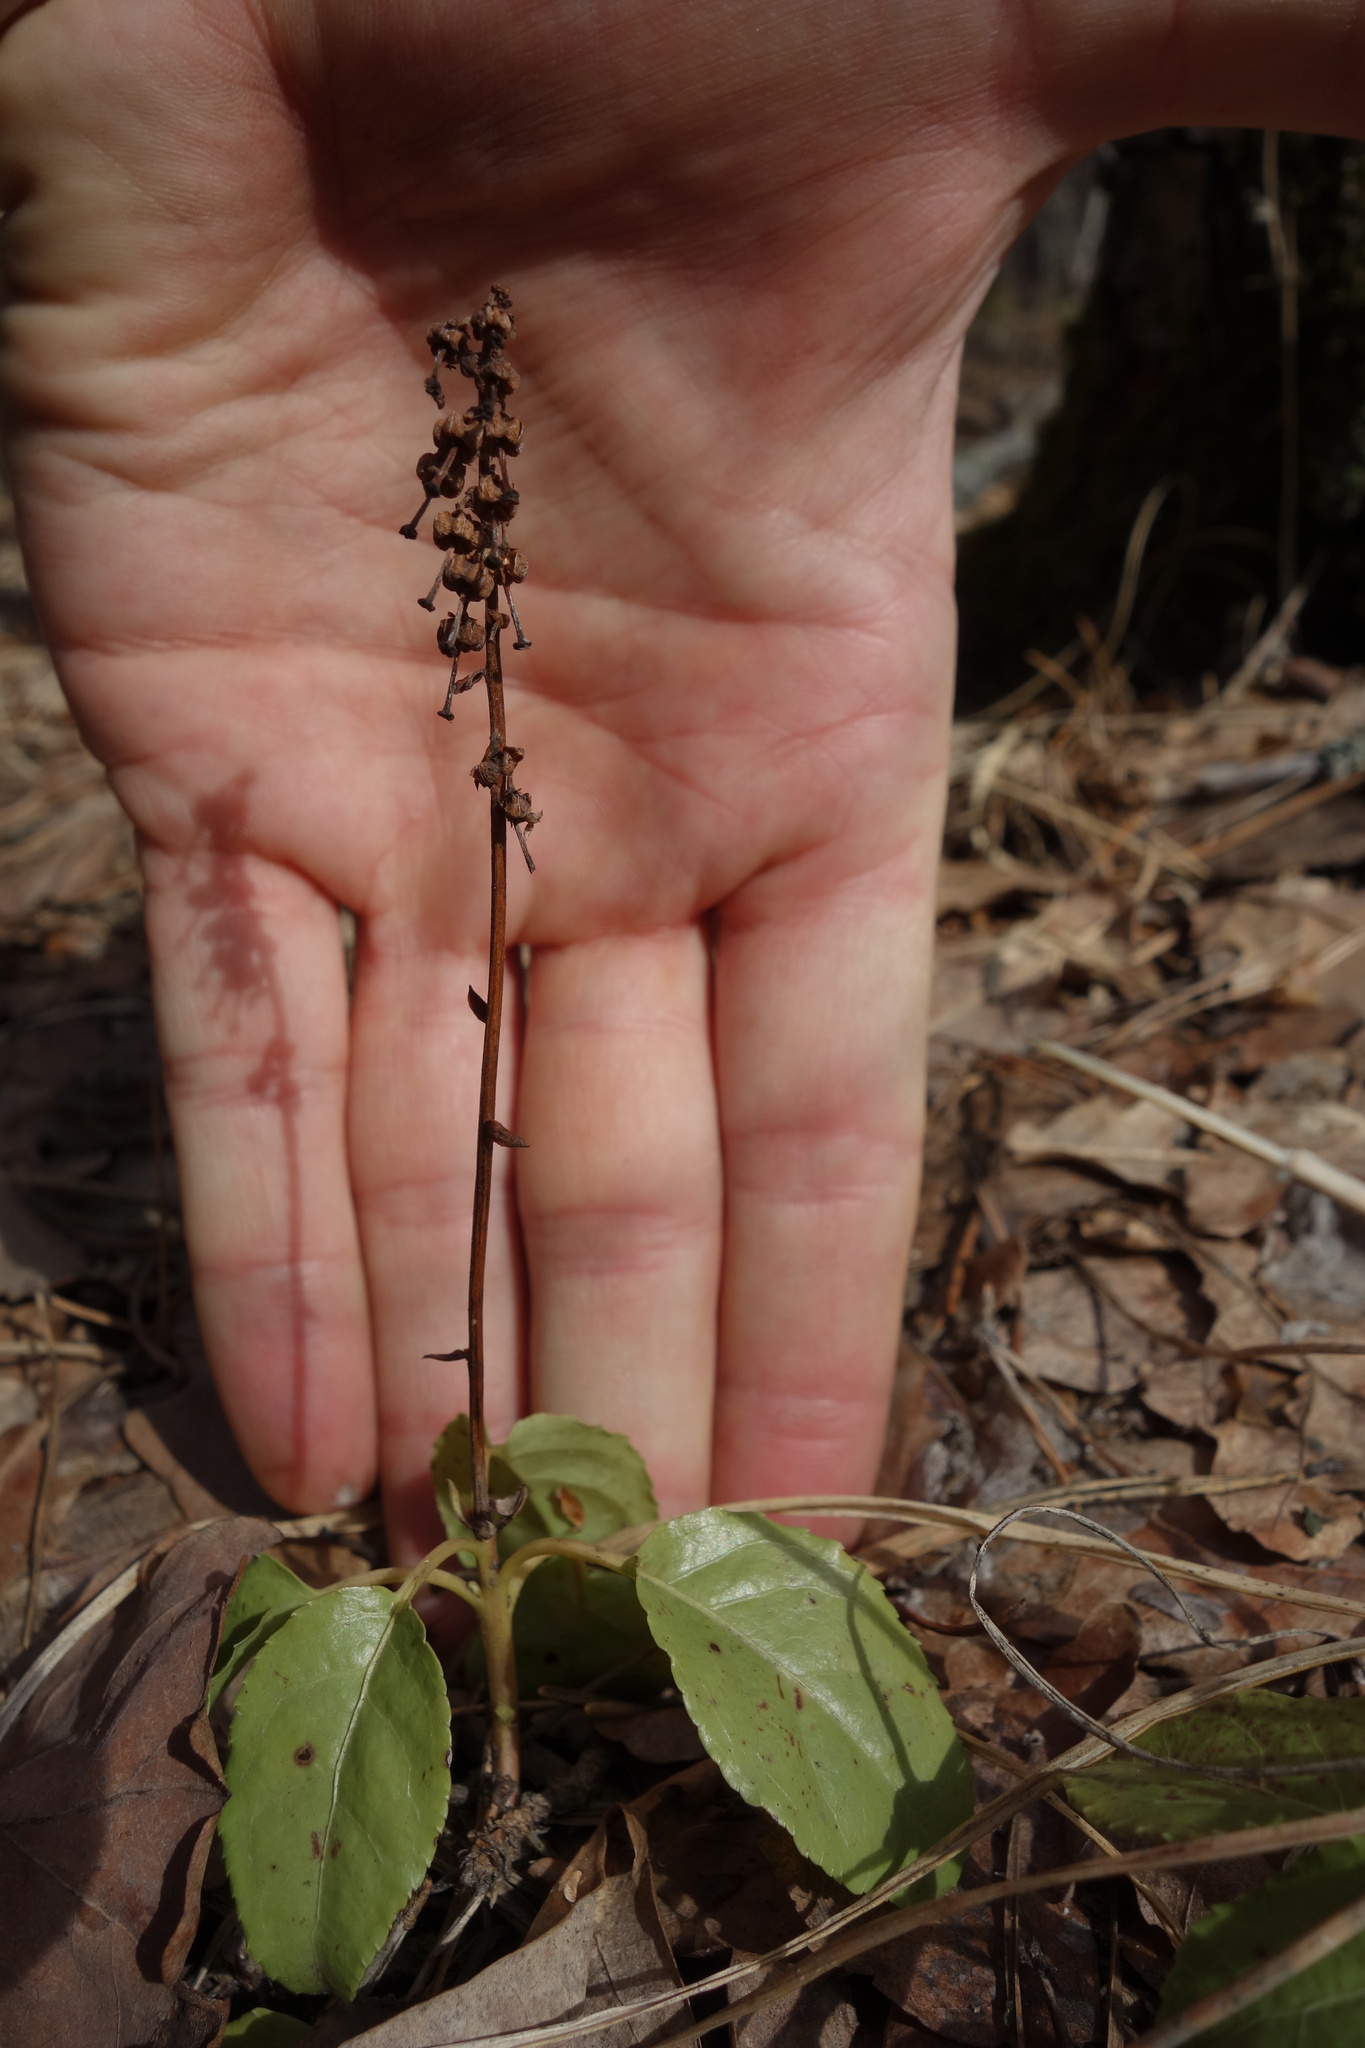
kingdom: Plantae
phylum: Tracheophyta
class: Magnoliopsida
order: Ericales
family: Ericaceae
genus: Orthilia
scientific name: Orthilia secunda
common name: One-sided orthilia
